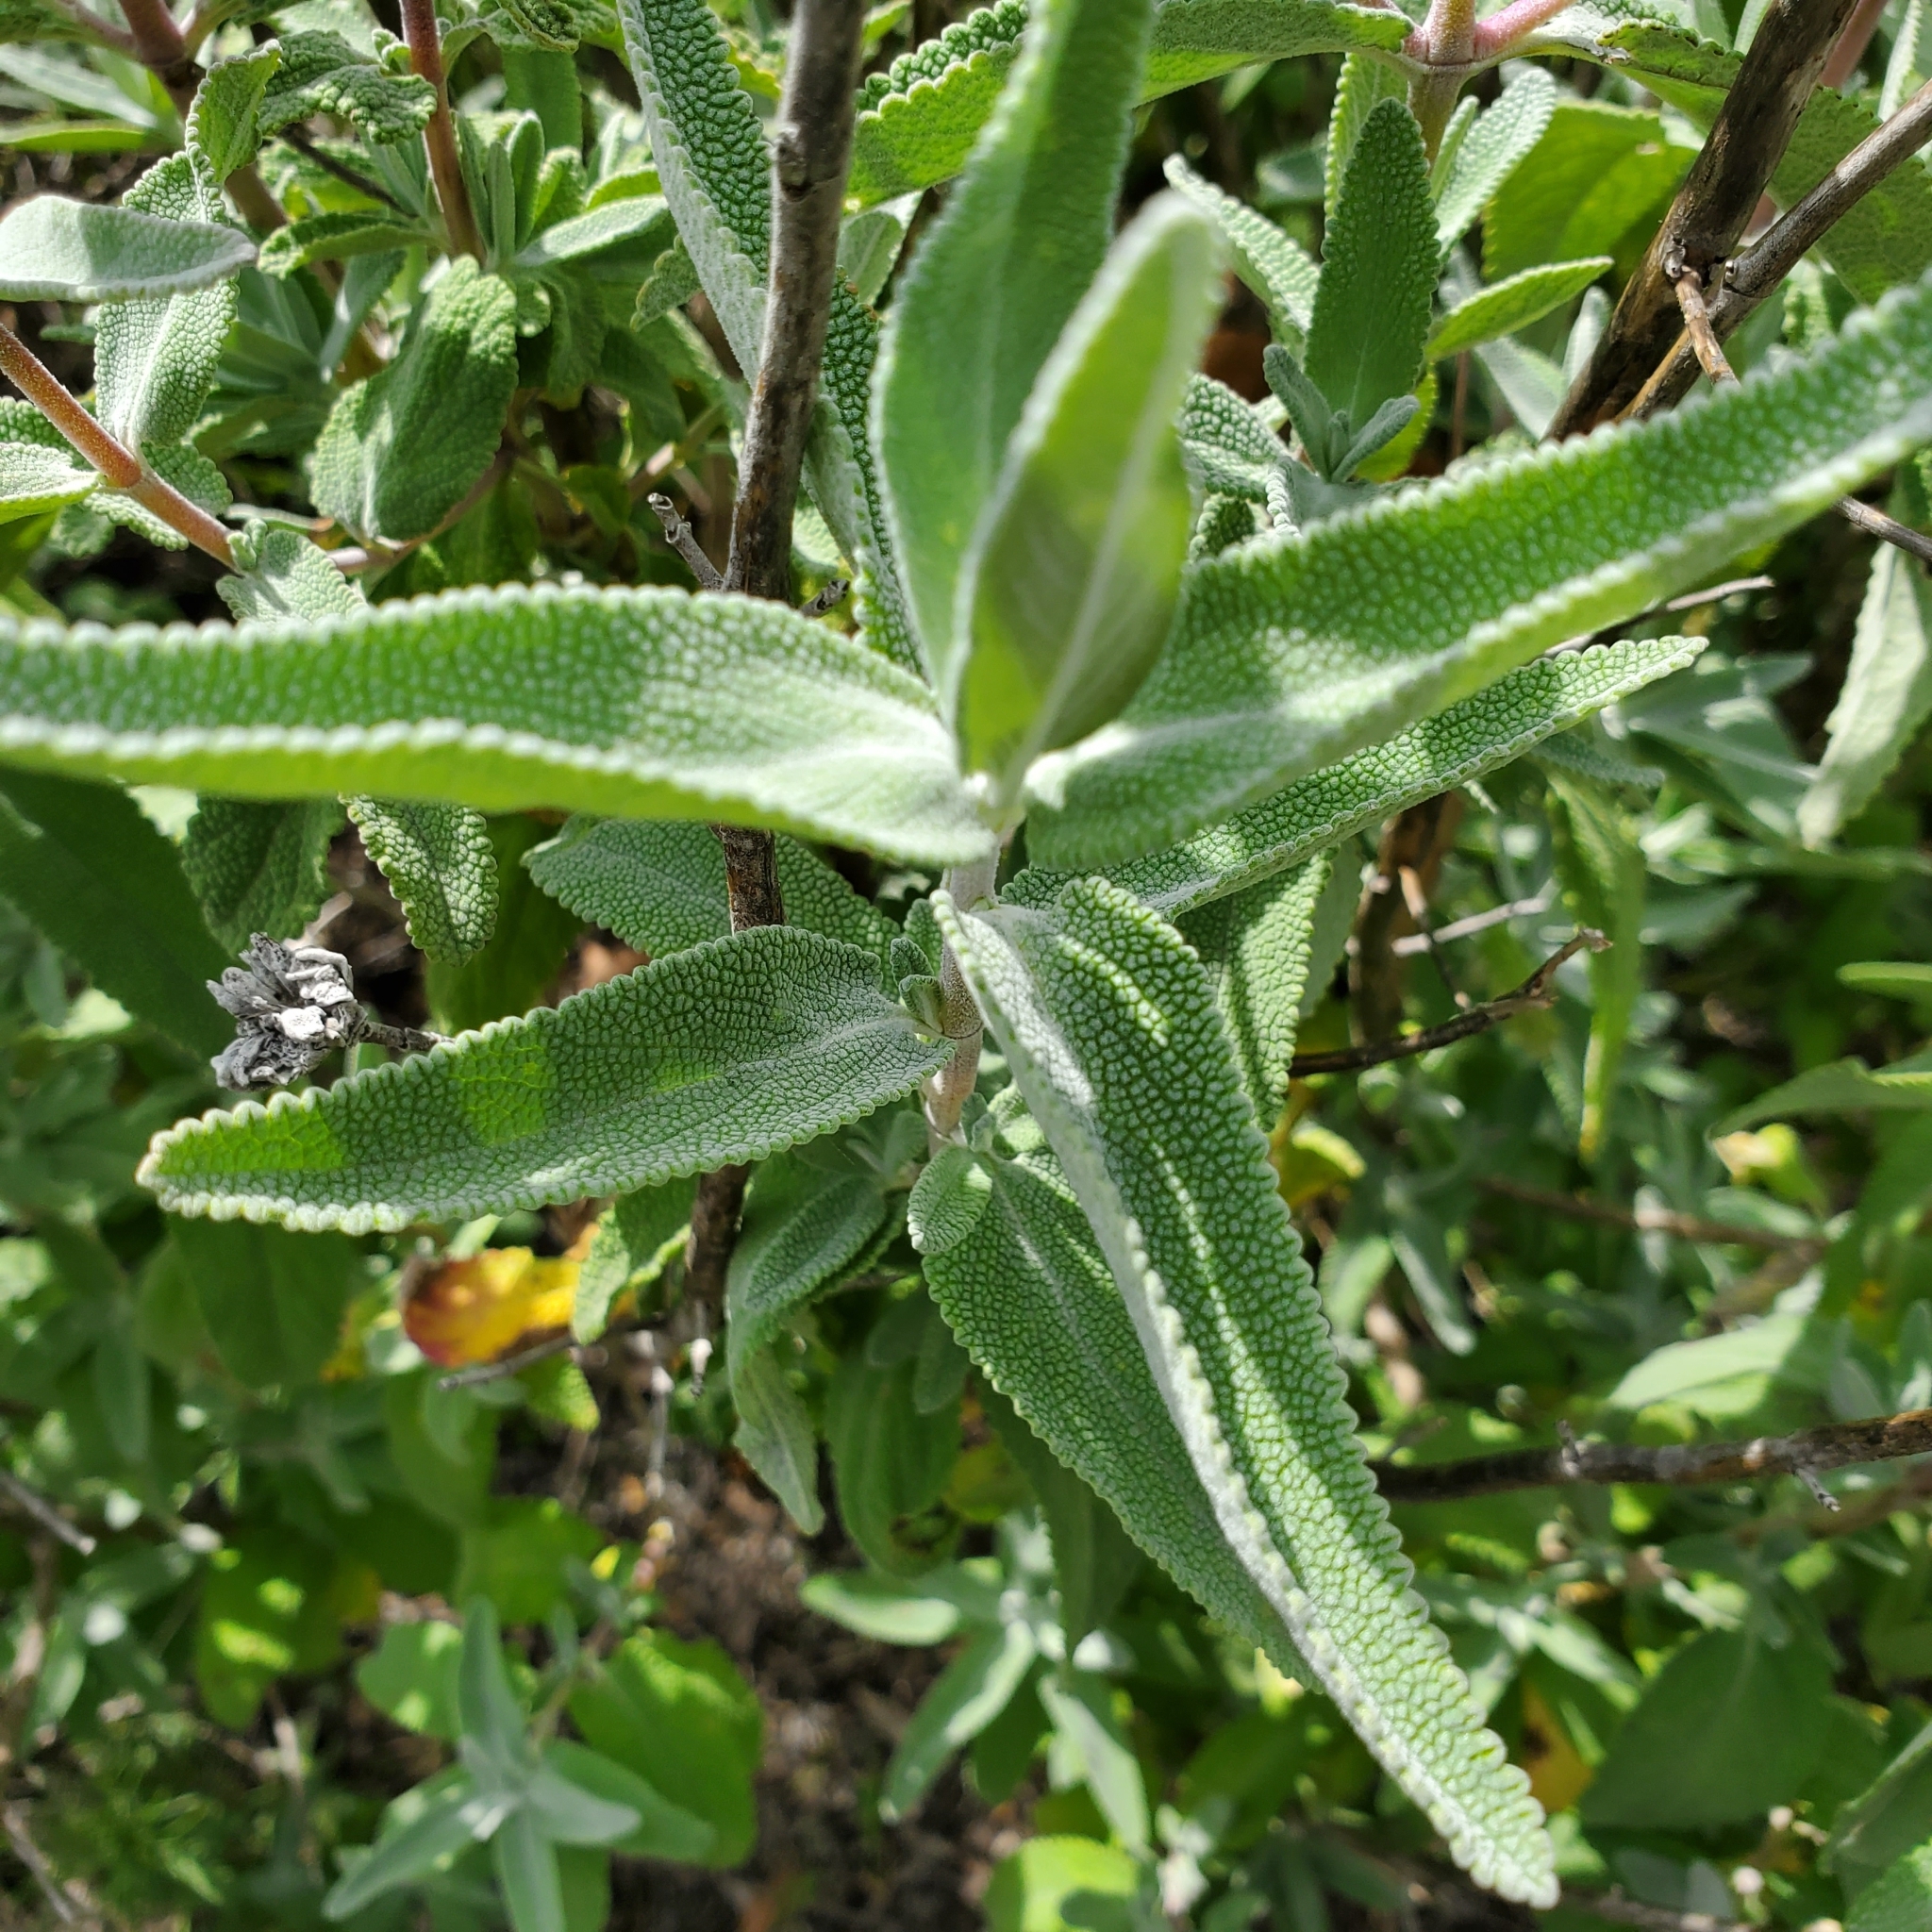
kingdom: Plantae
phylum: Tracheophyta
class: Magnoliopsida
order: Lamiales
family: Lamiaceae
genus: Salvia
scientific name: Salvia leucophylla
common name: Purple sage
